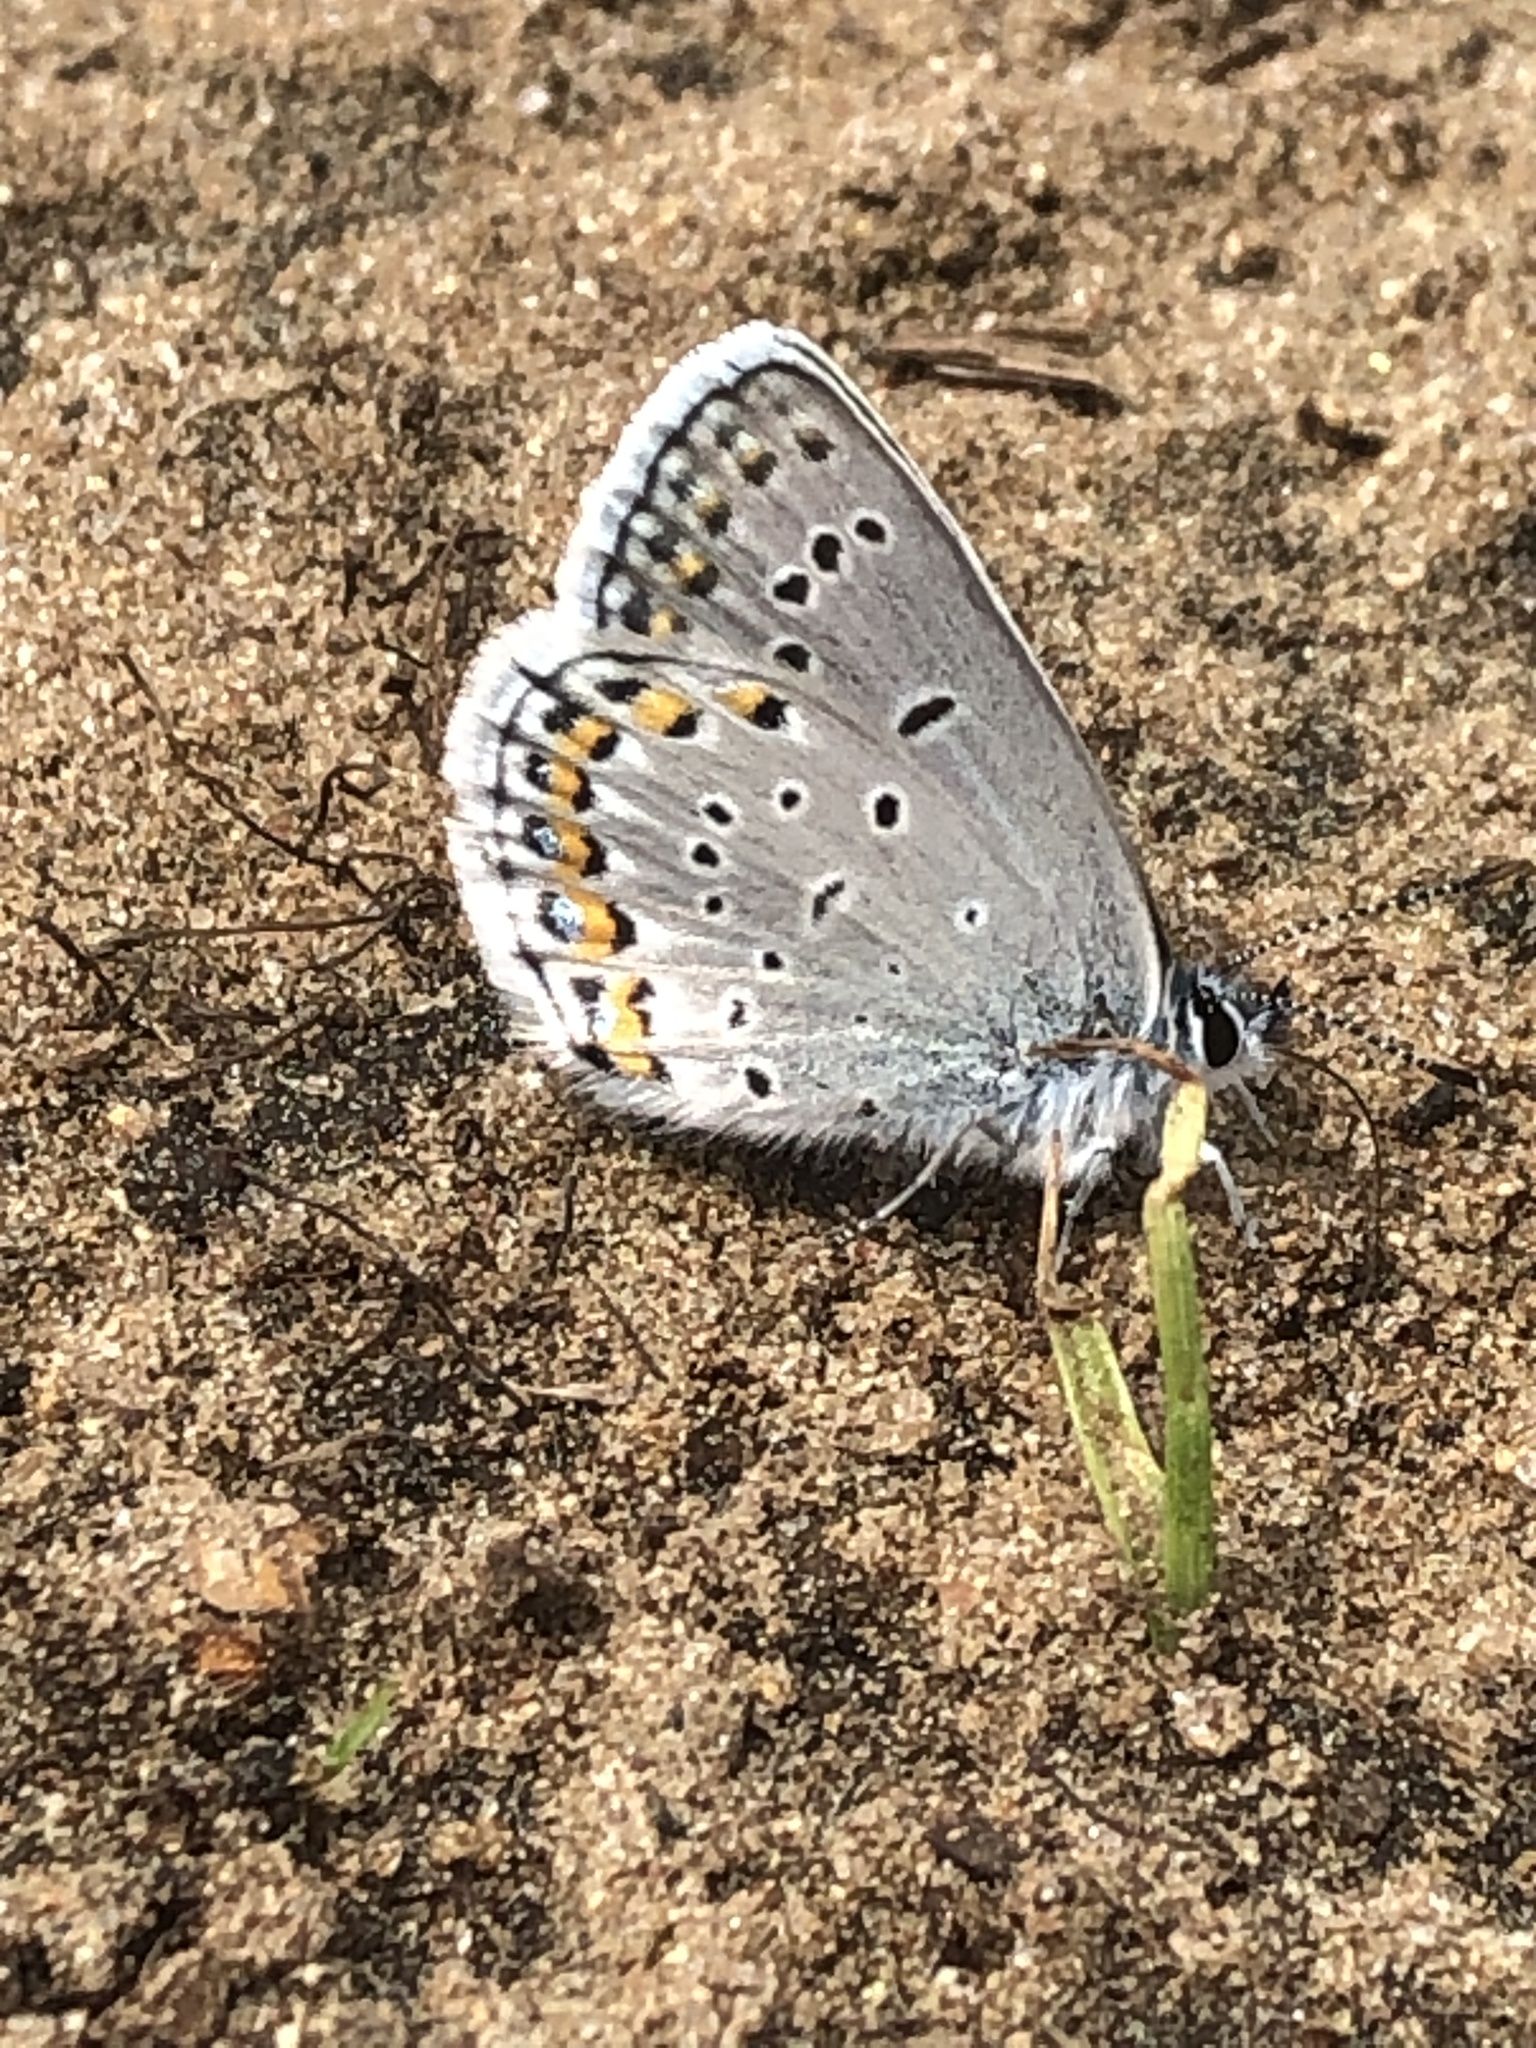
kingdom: Animalia
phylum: Arthropoda
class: Insecta
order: Lepidoptera
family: Lycaenidae
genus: Plebejus
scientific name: Plebejus samuelis
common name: Karner blue
